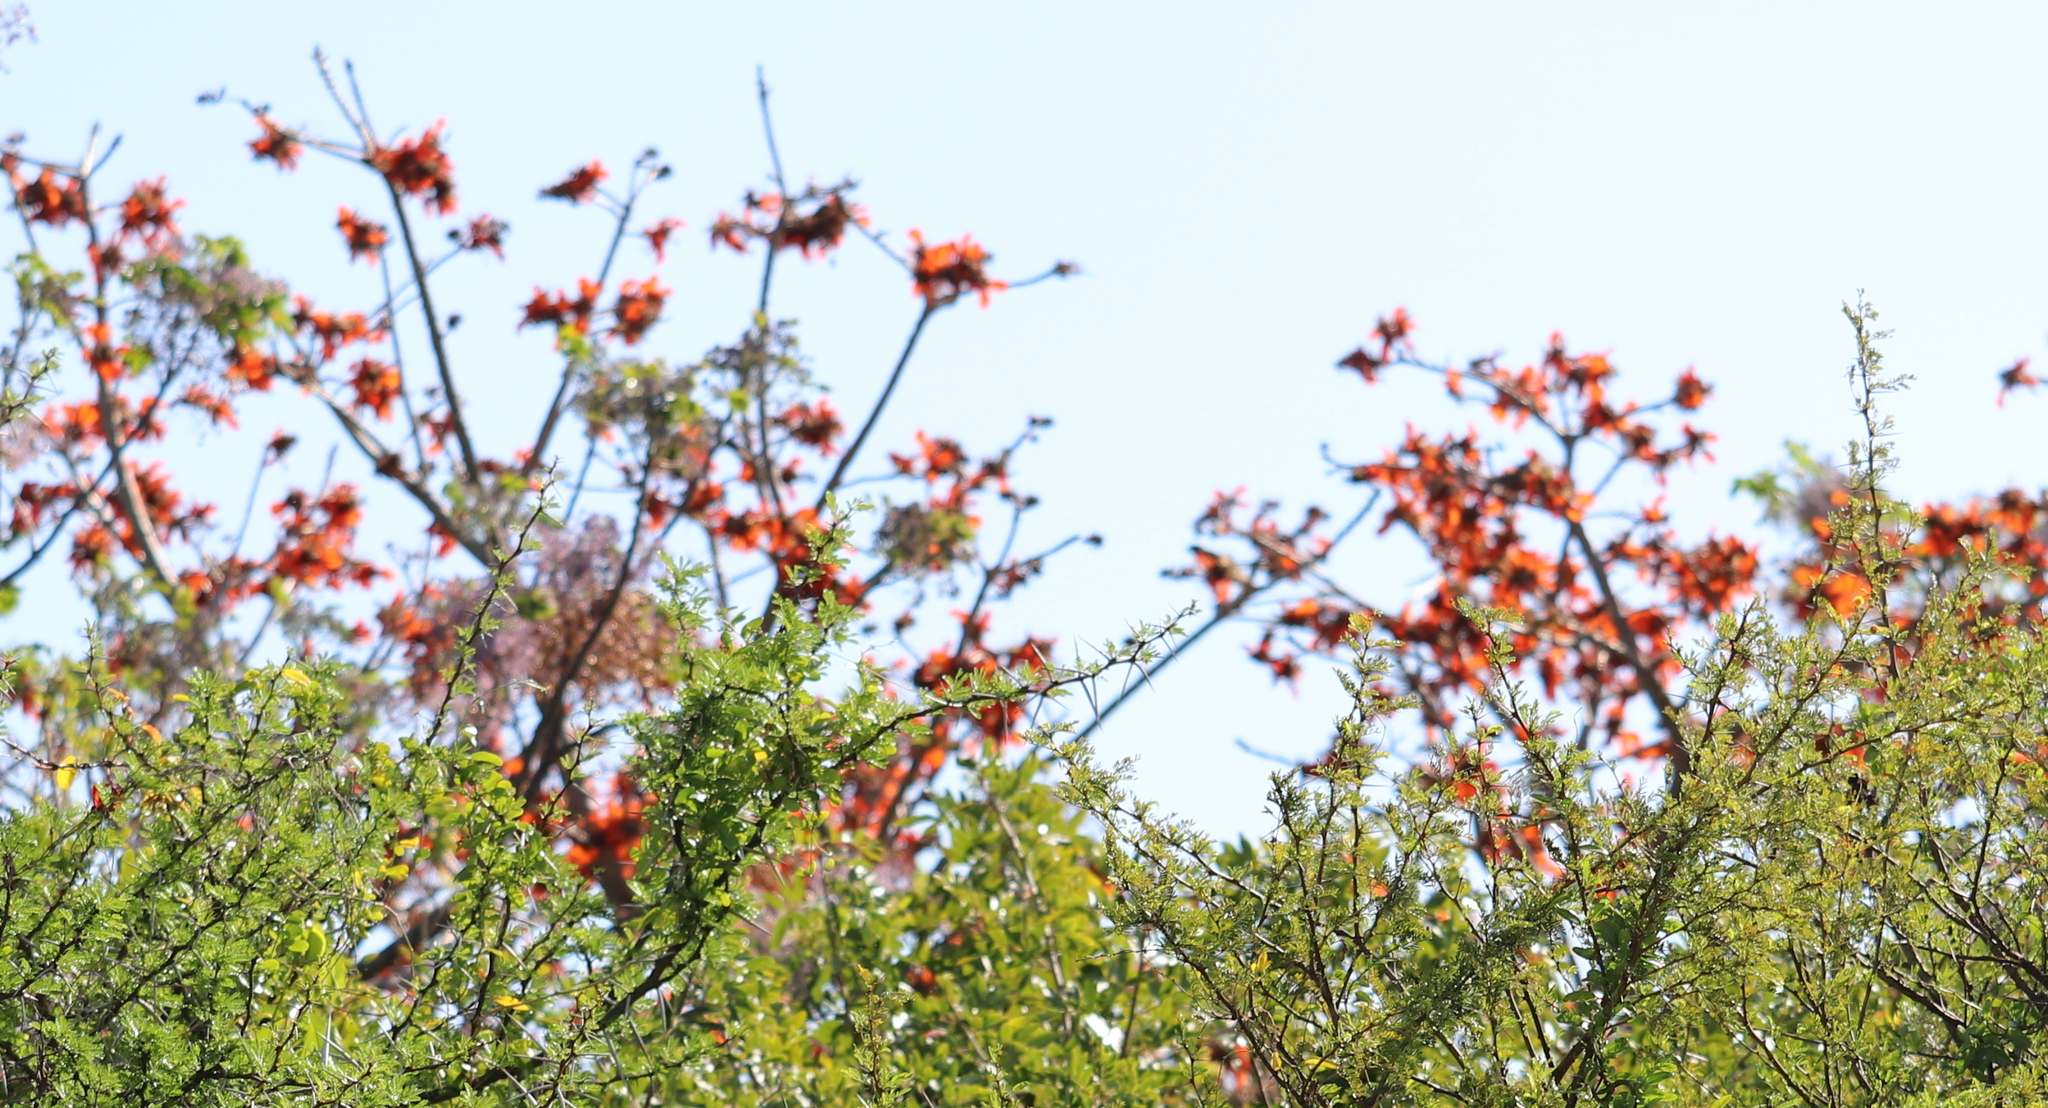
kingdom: Plantae
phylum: Tracheophyta
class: Magnoliopsida
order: Fabales
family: Fabaceae
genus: Erythrina
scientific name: Erythrina caffra
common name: Coast coral tree
